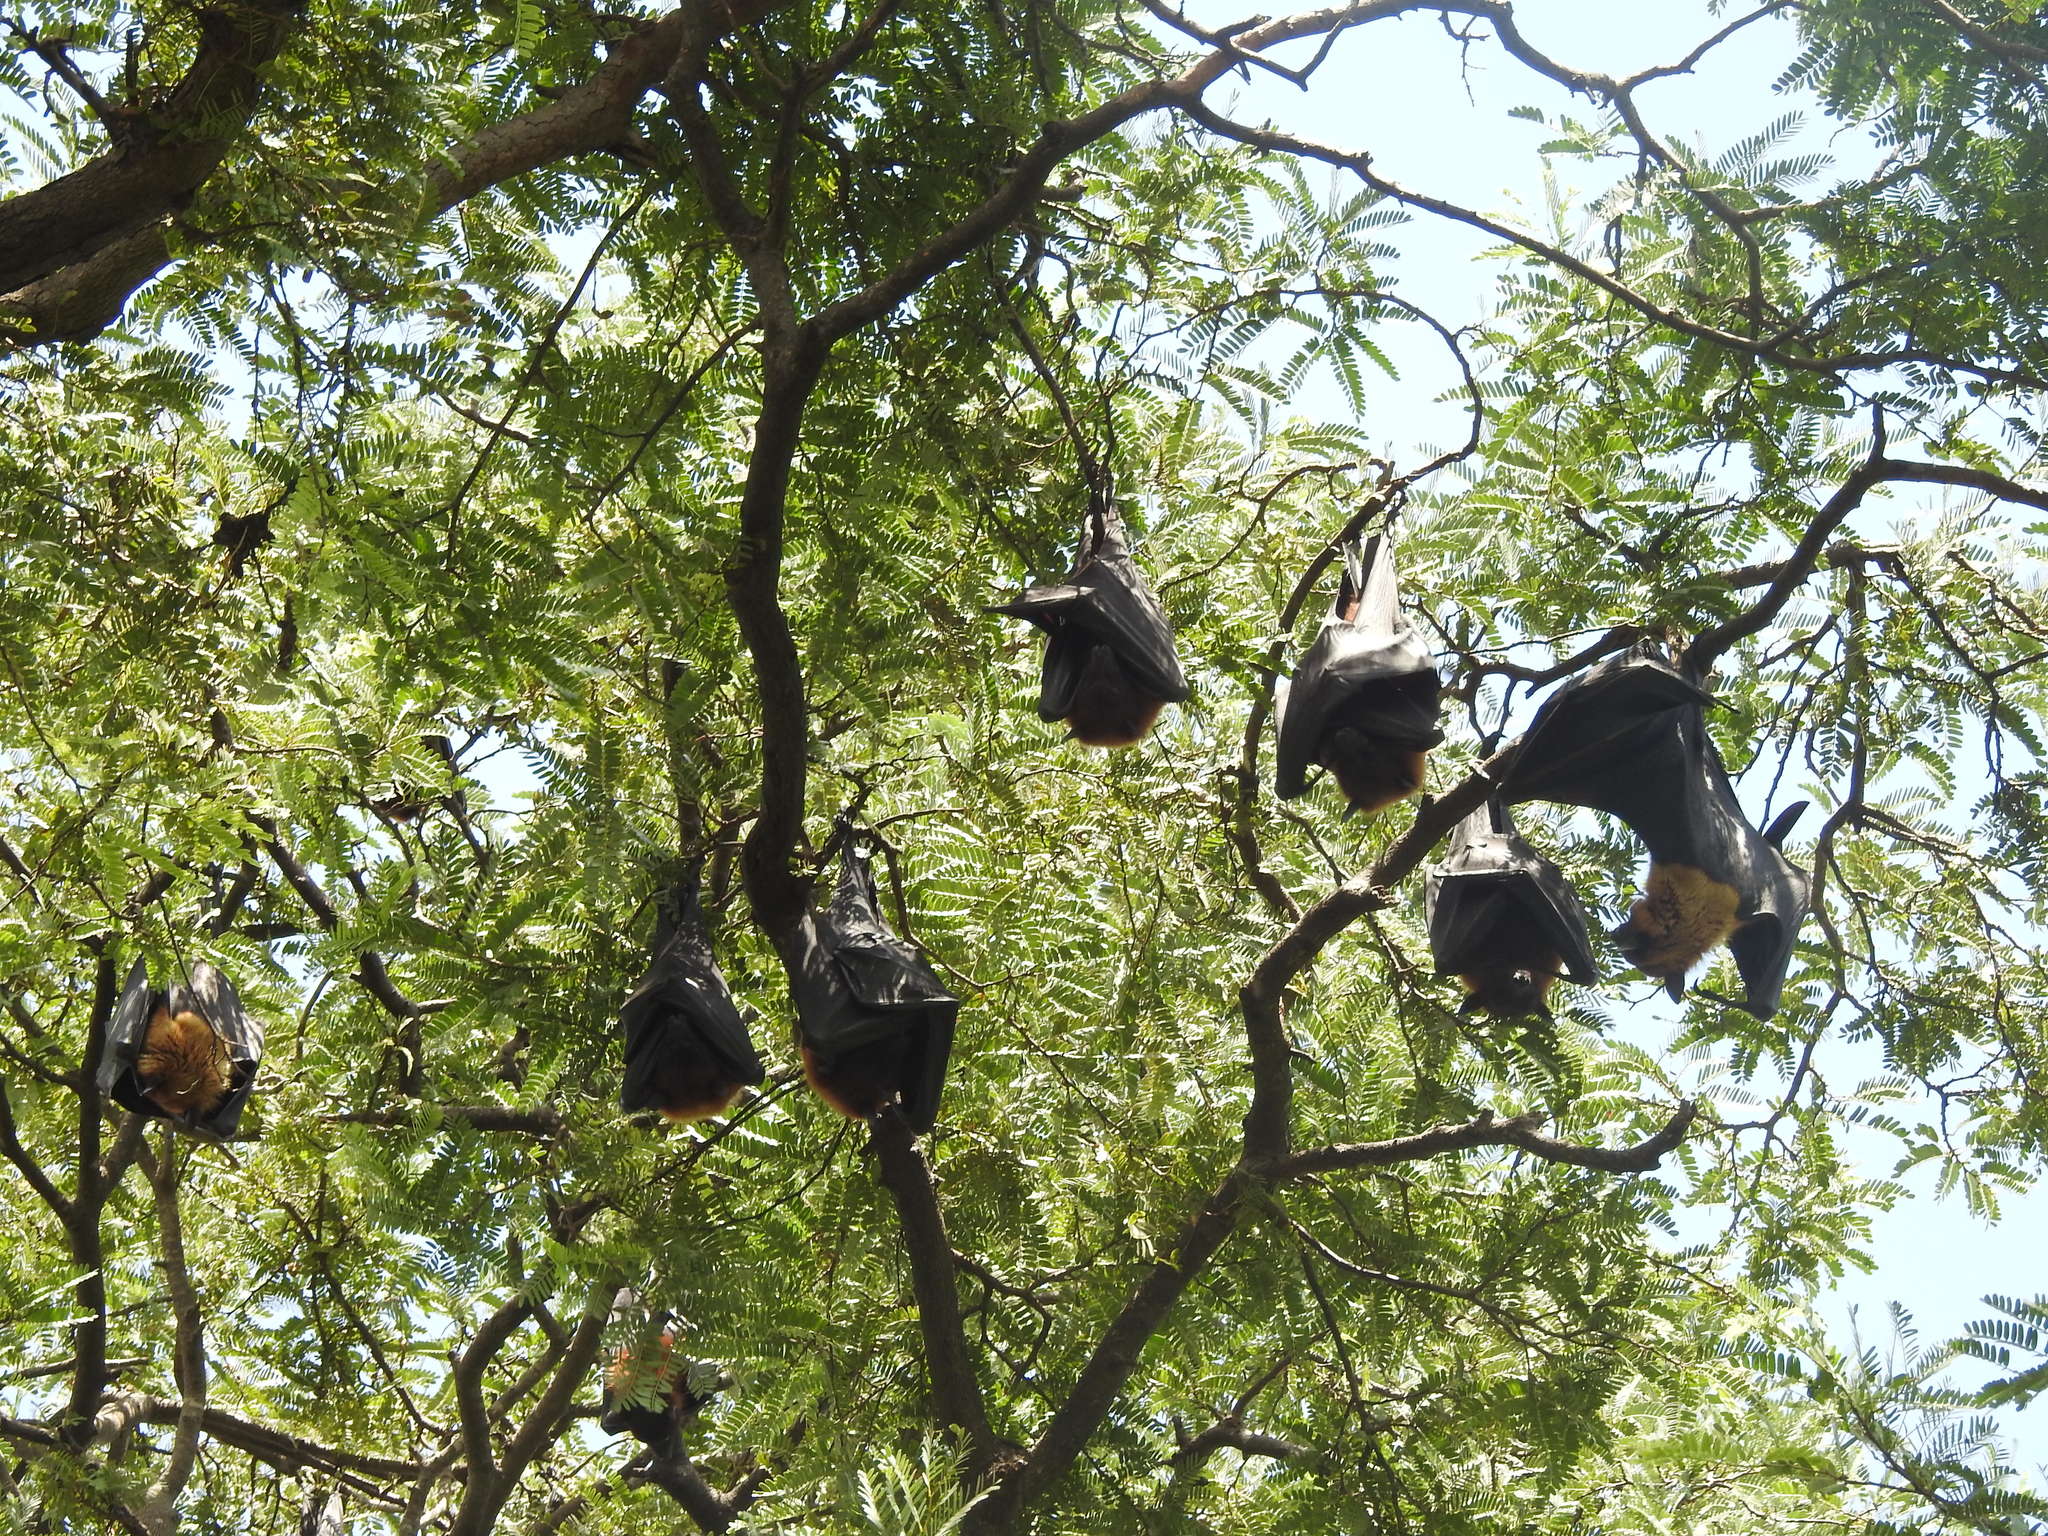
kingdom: Animalia
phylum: Chordata
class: Mammalia
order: Chiroptera
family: Pteropodidae
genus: Pteropus
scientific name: Pteropus vampyrus
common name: Large flying fox
